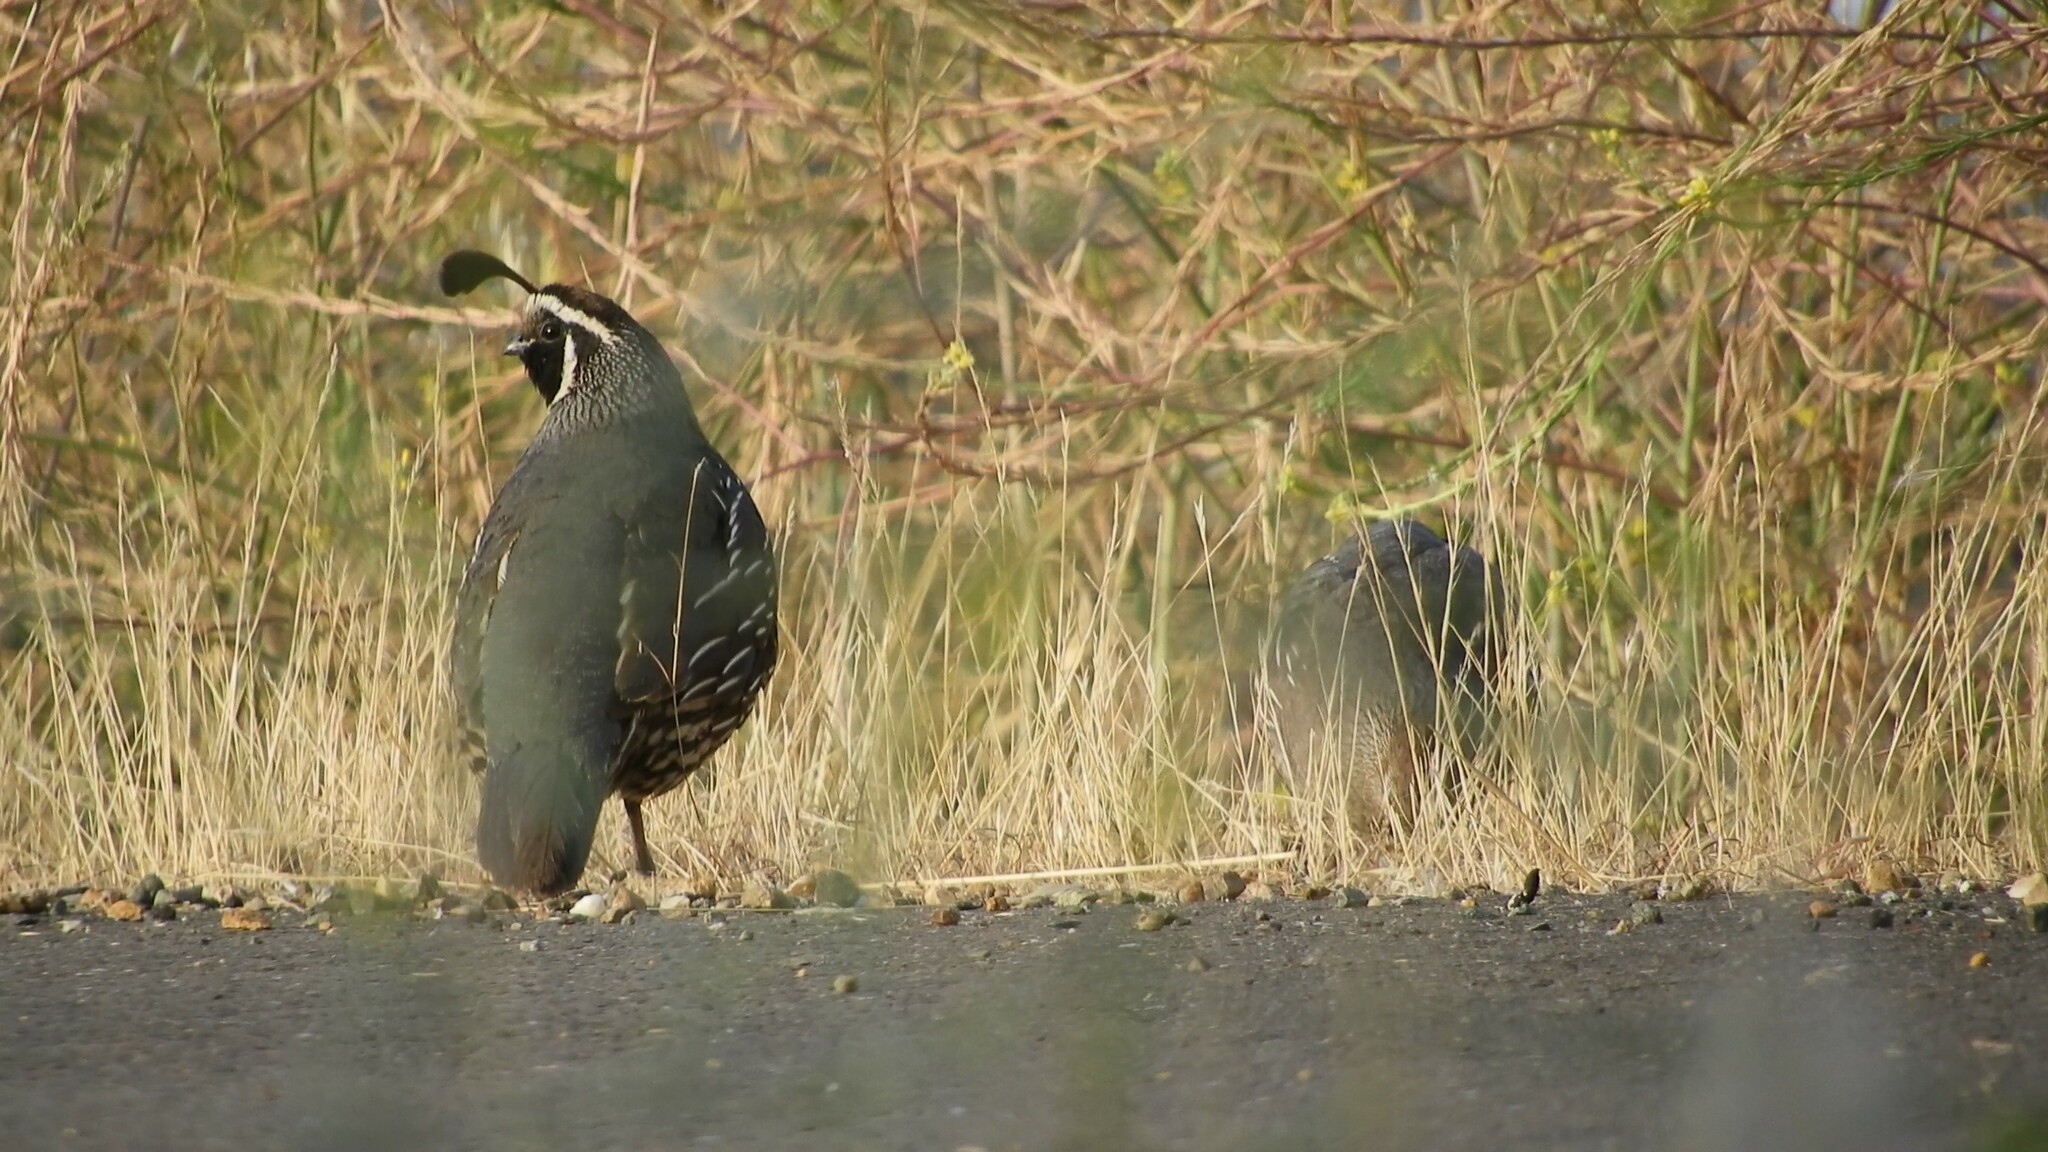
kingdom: Animalia
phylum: Chordata
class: Aves
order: Galliformes
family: Odontophoridae
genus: Callipepla
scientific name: Callipepla californica
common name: California quail
